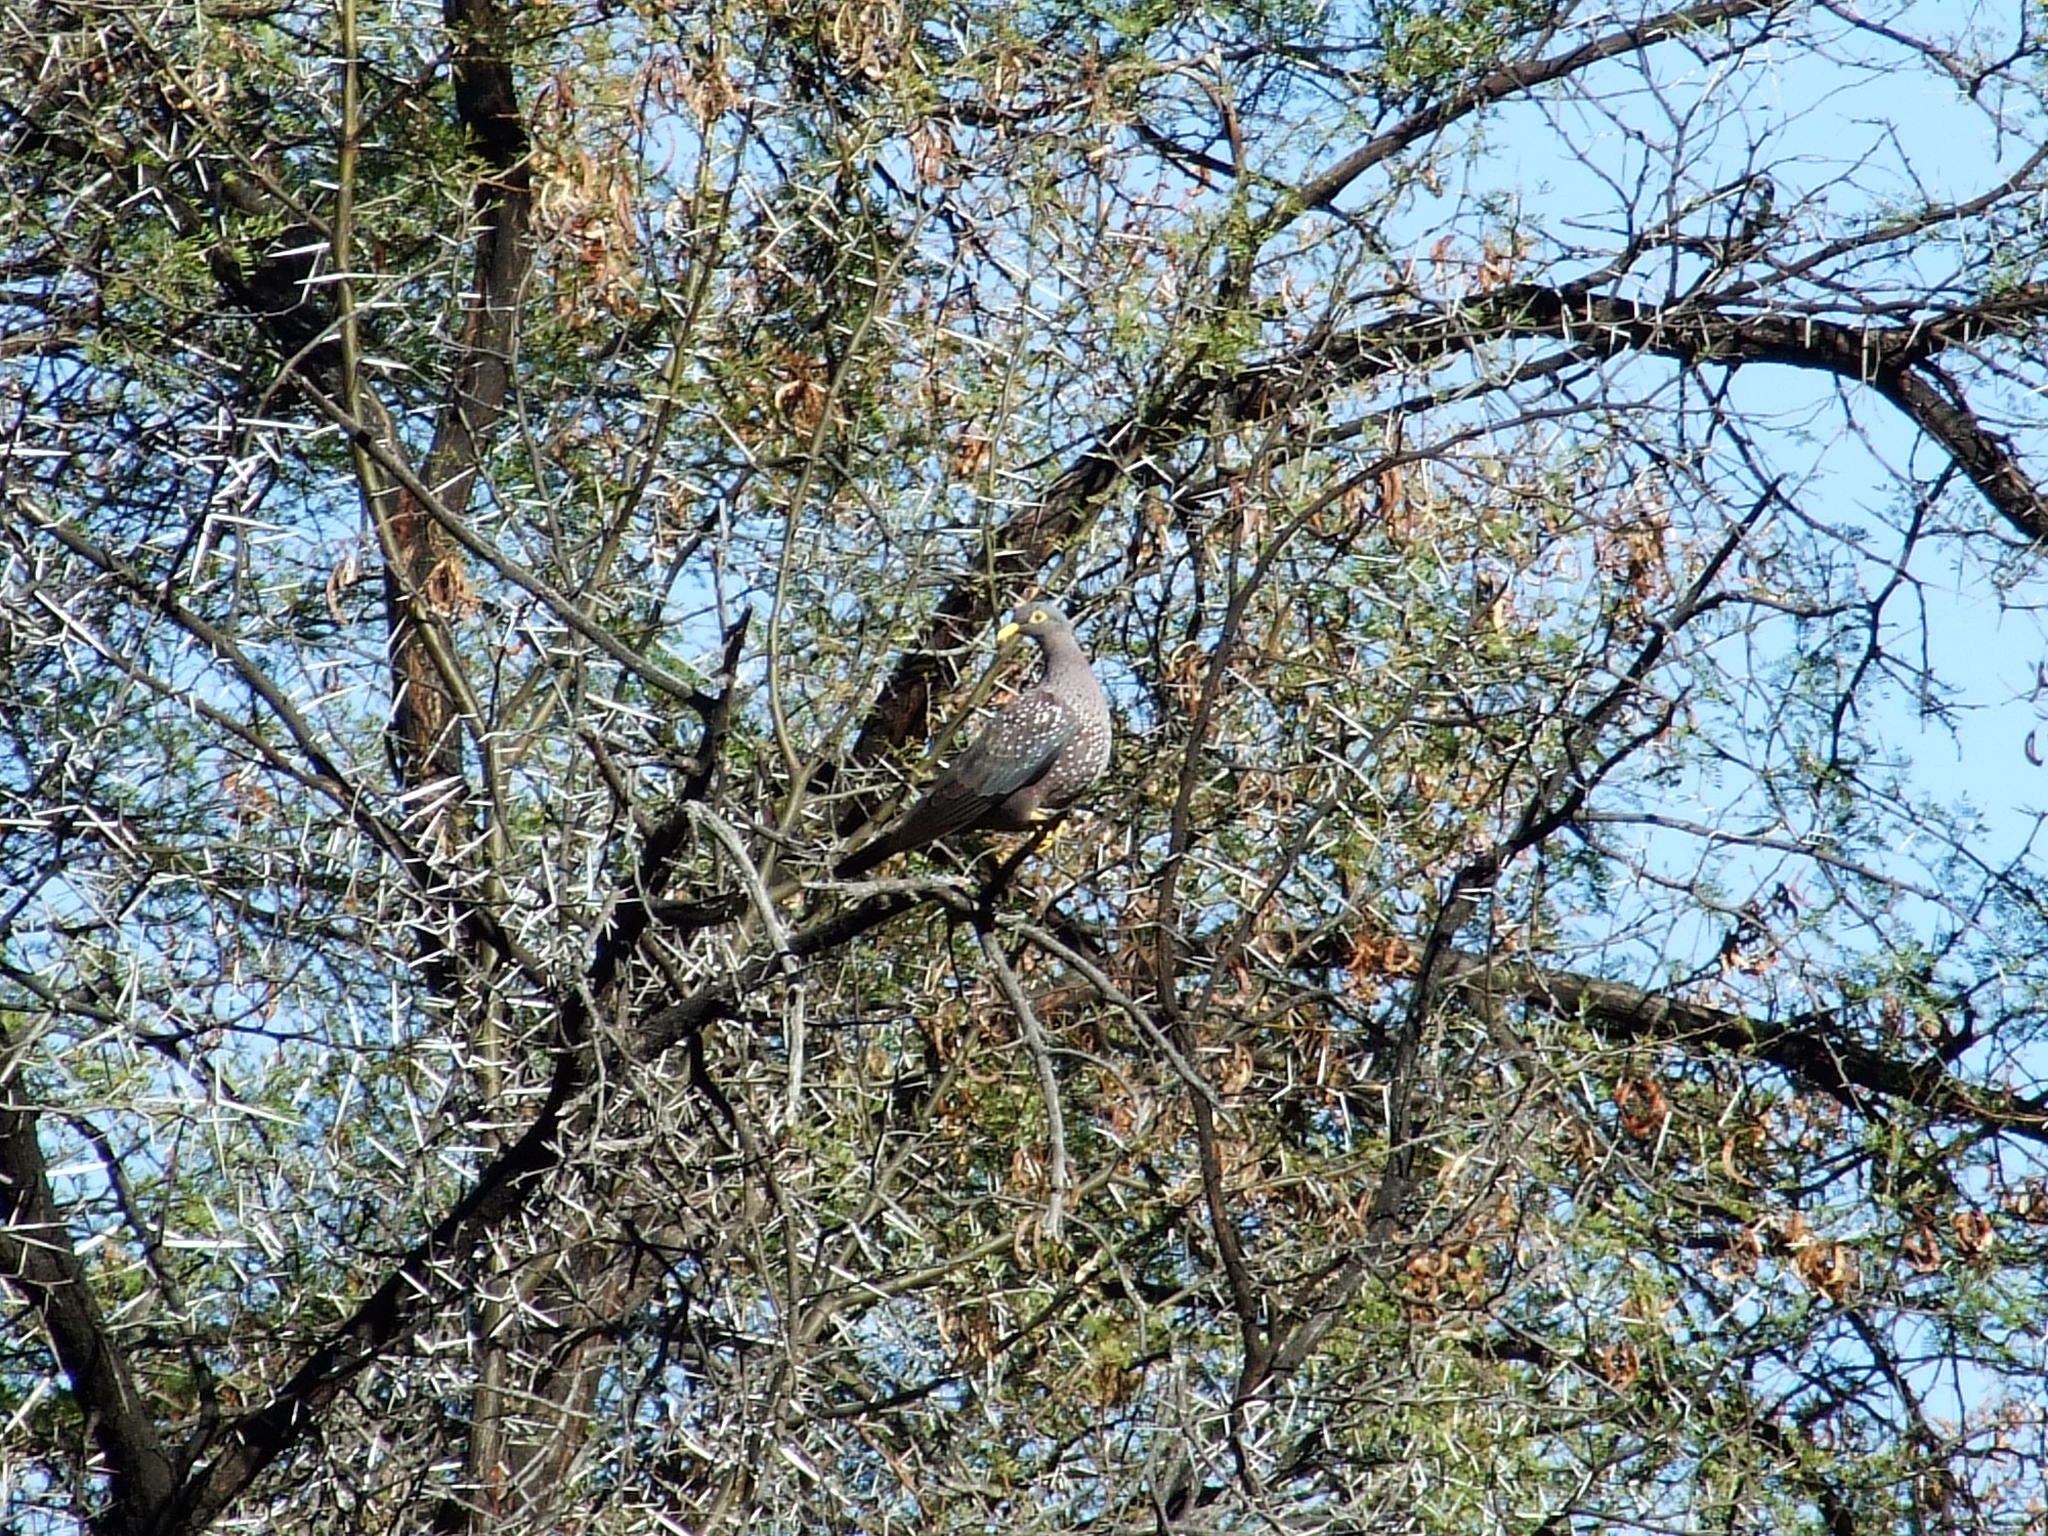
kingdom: Animalia
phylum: Chordata
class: Aves
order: Columbiformes
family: Columbidae
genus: Columba
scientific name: Columba arquatrix
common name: African olive pigeon
